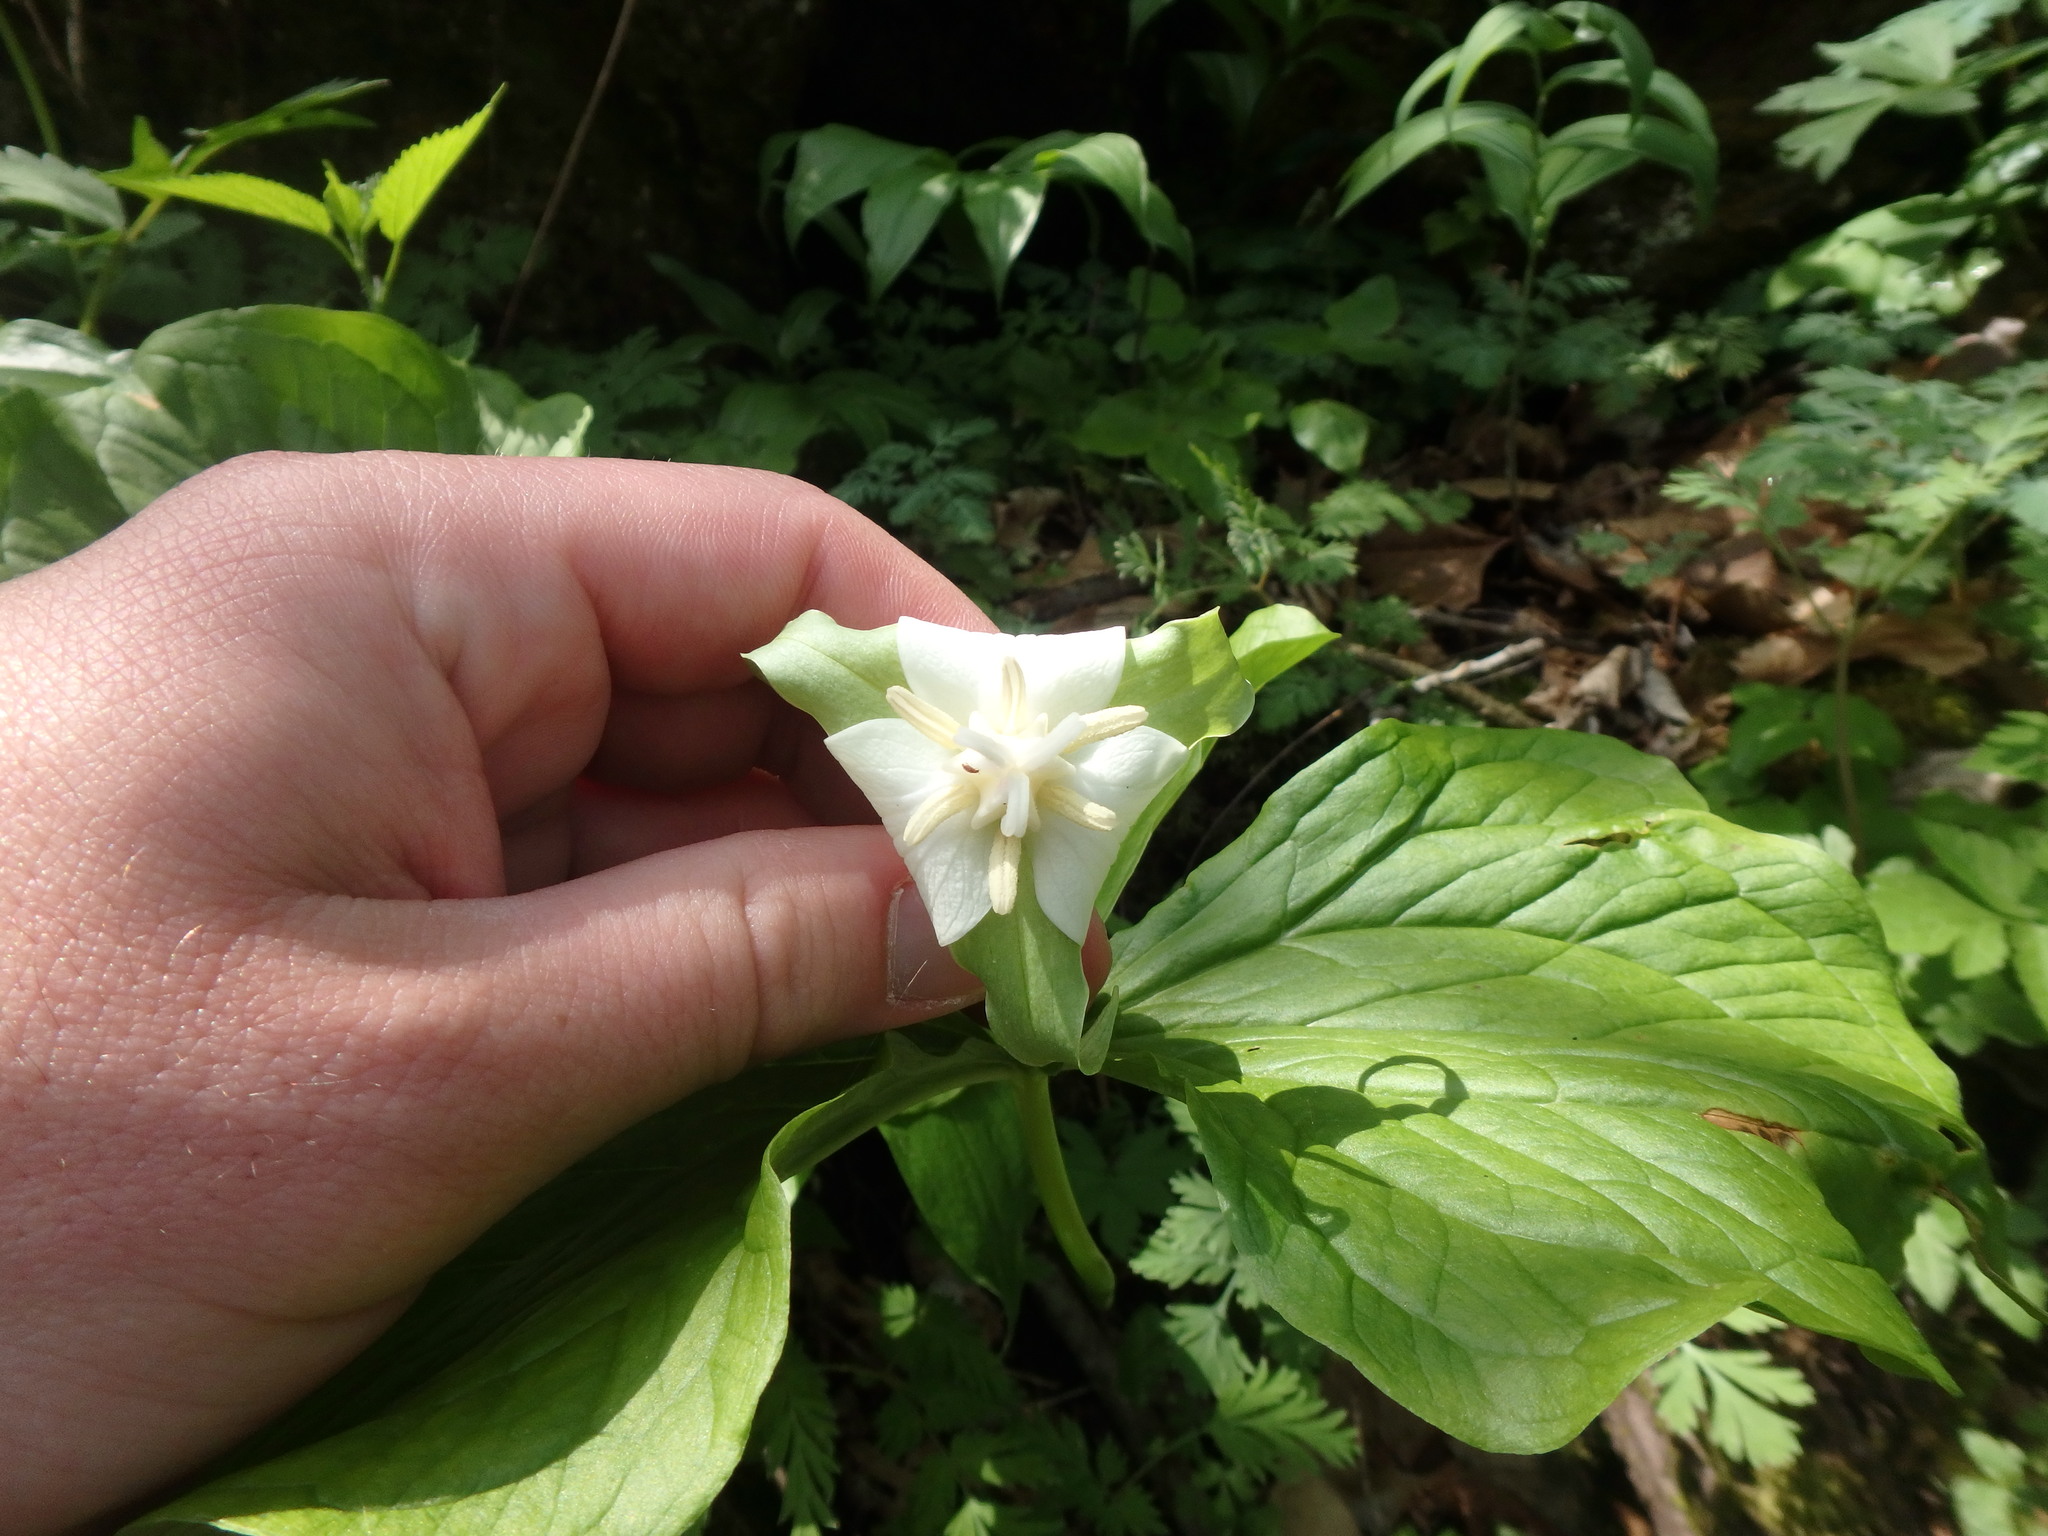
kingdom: Plantae
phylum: Tracheophyta
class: Liliopsida
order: Liliales
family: Melanthiaceae
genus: Trillium
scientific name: Trillium flexipes
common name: Drooping trillium
